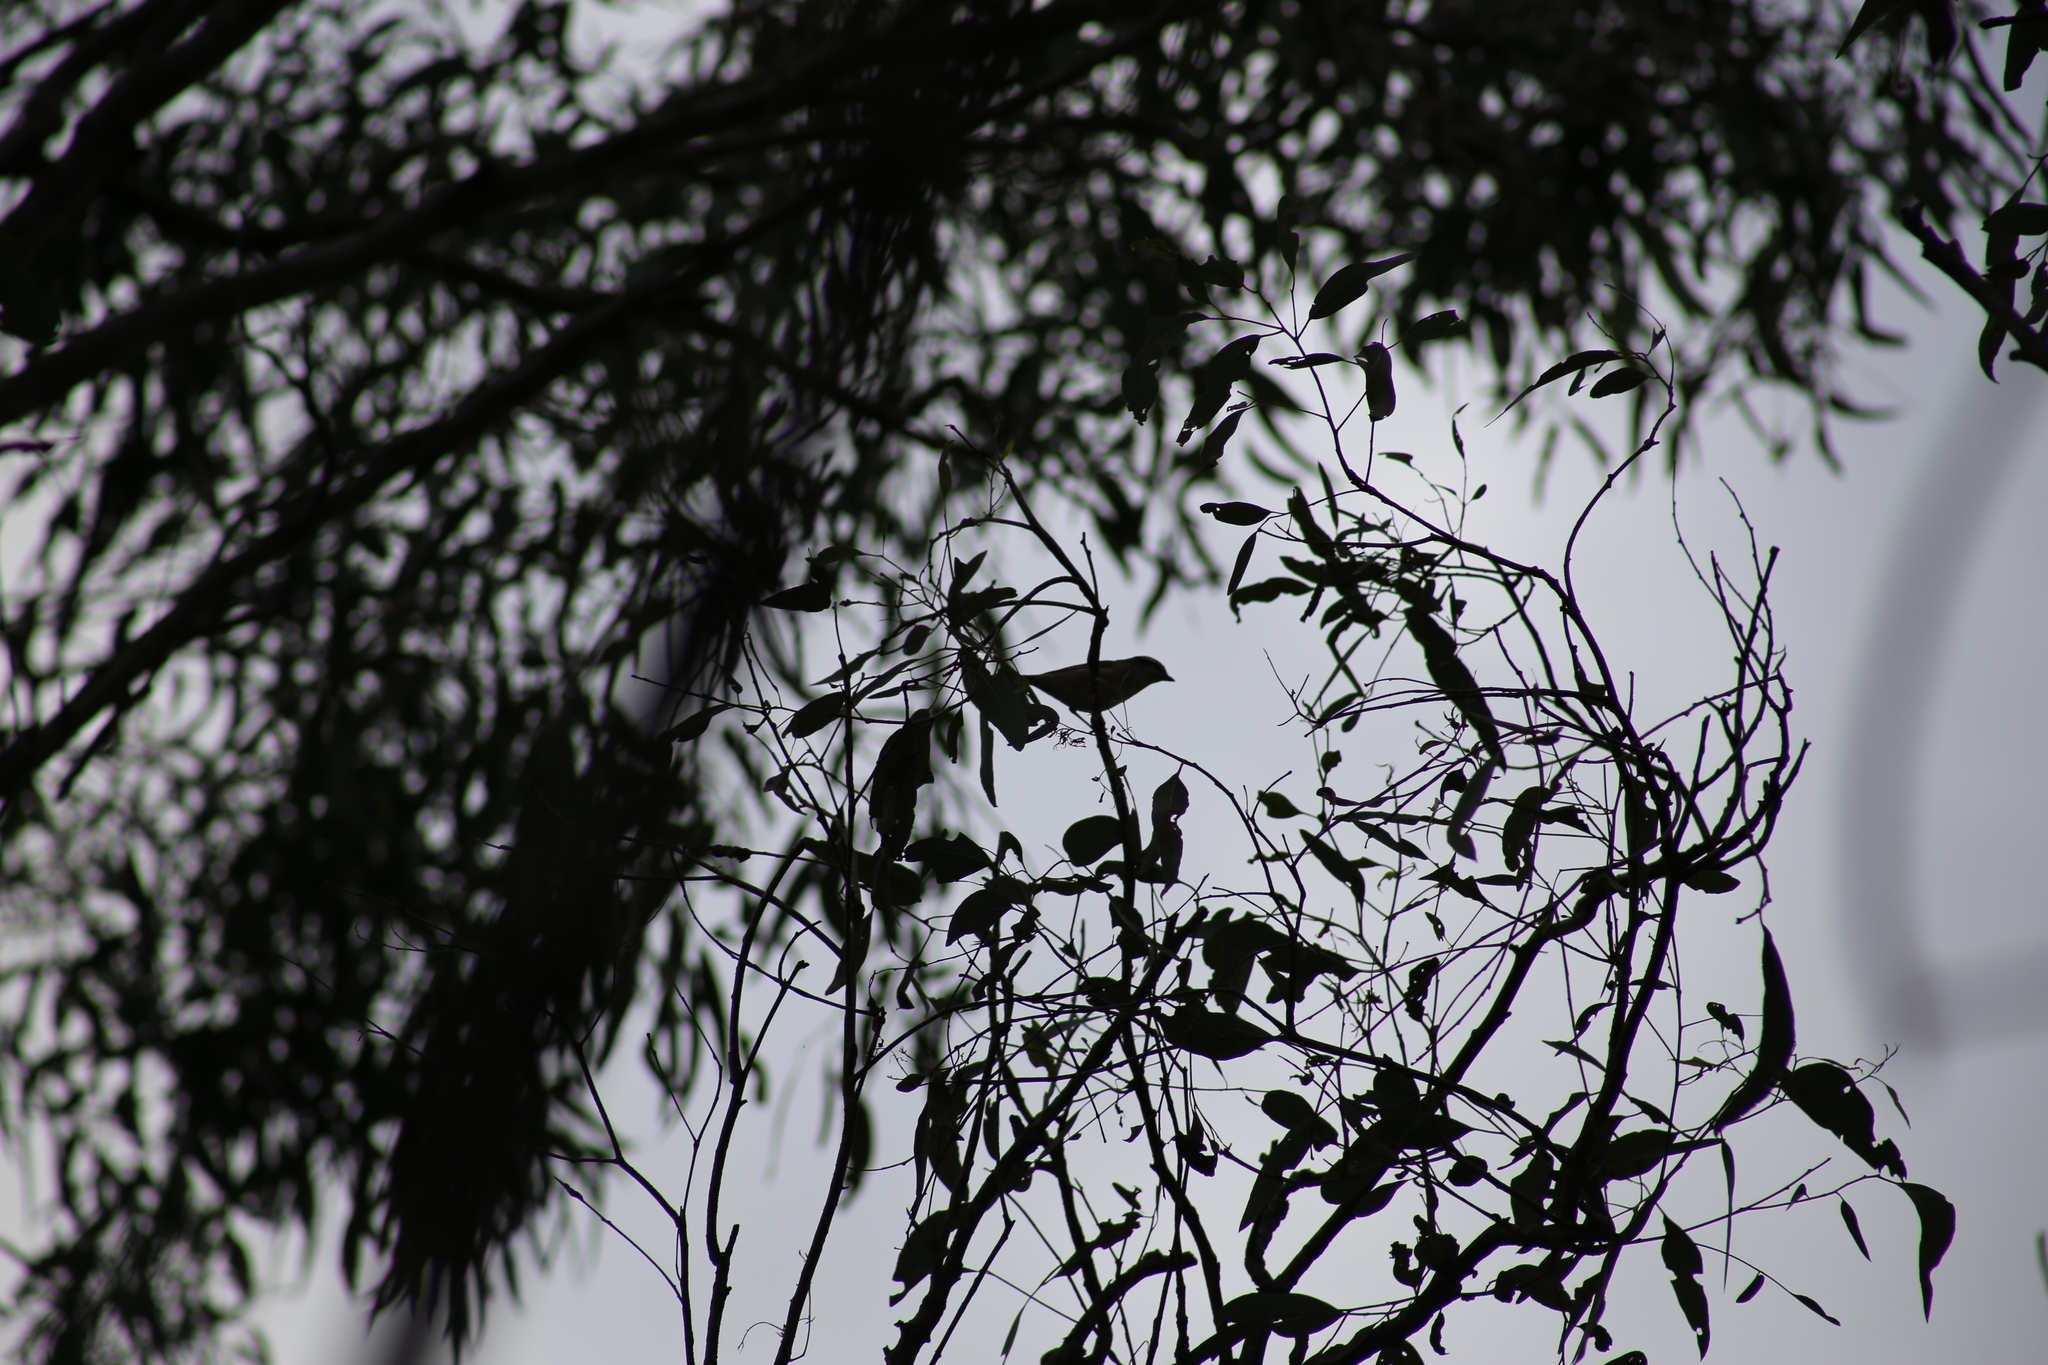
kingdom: Animalia
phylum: Chordata
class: Aves
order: Passeriformes
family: Pardalotidae
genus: Pardalotus
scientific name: Pardalotus striatus
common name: Striated pardalote
